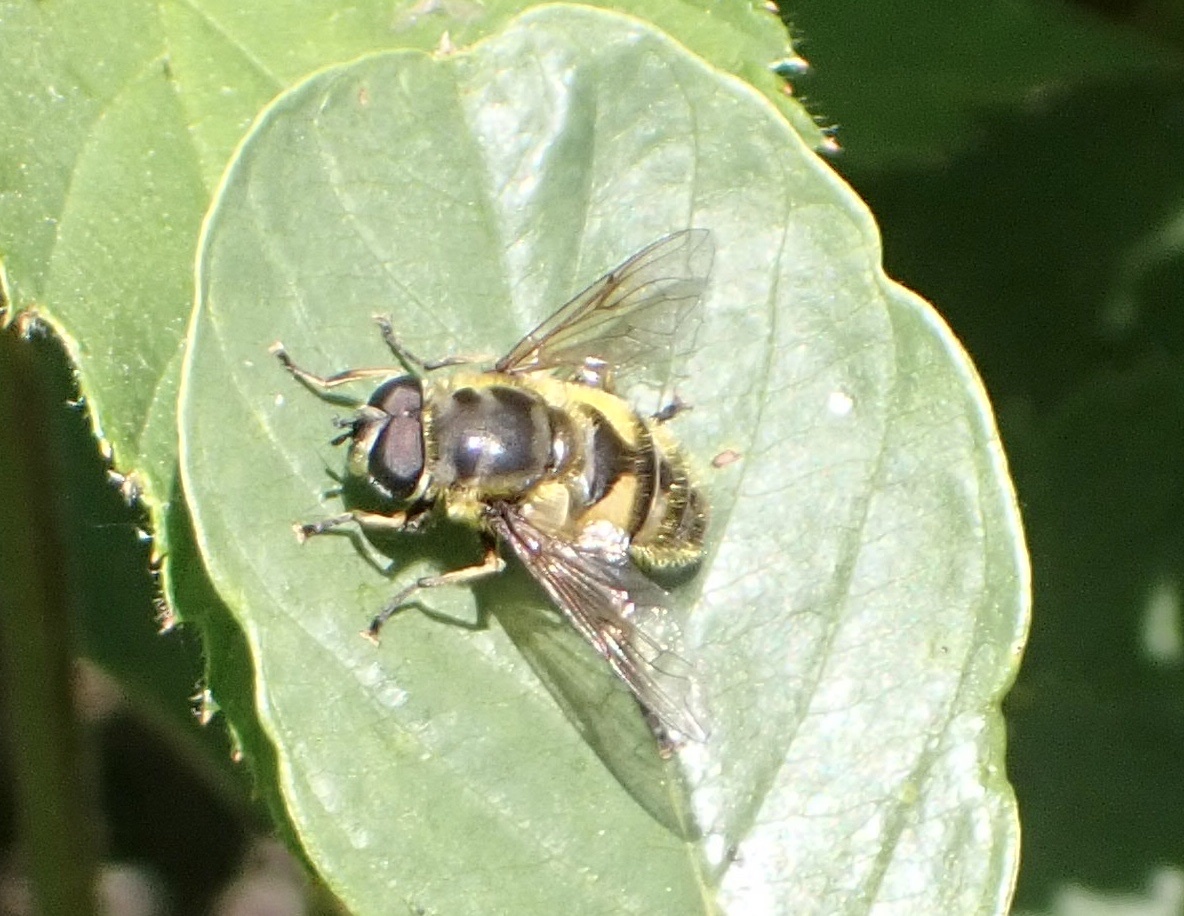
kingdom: Animalia
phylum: Arthropoda
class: Insecta
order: Diptera
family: Syrphidae
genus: Myathropa
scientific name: Myathropa florea
